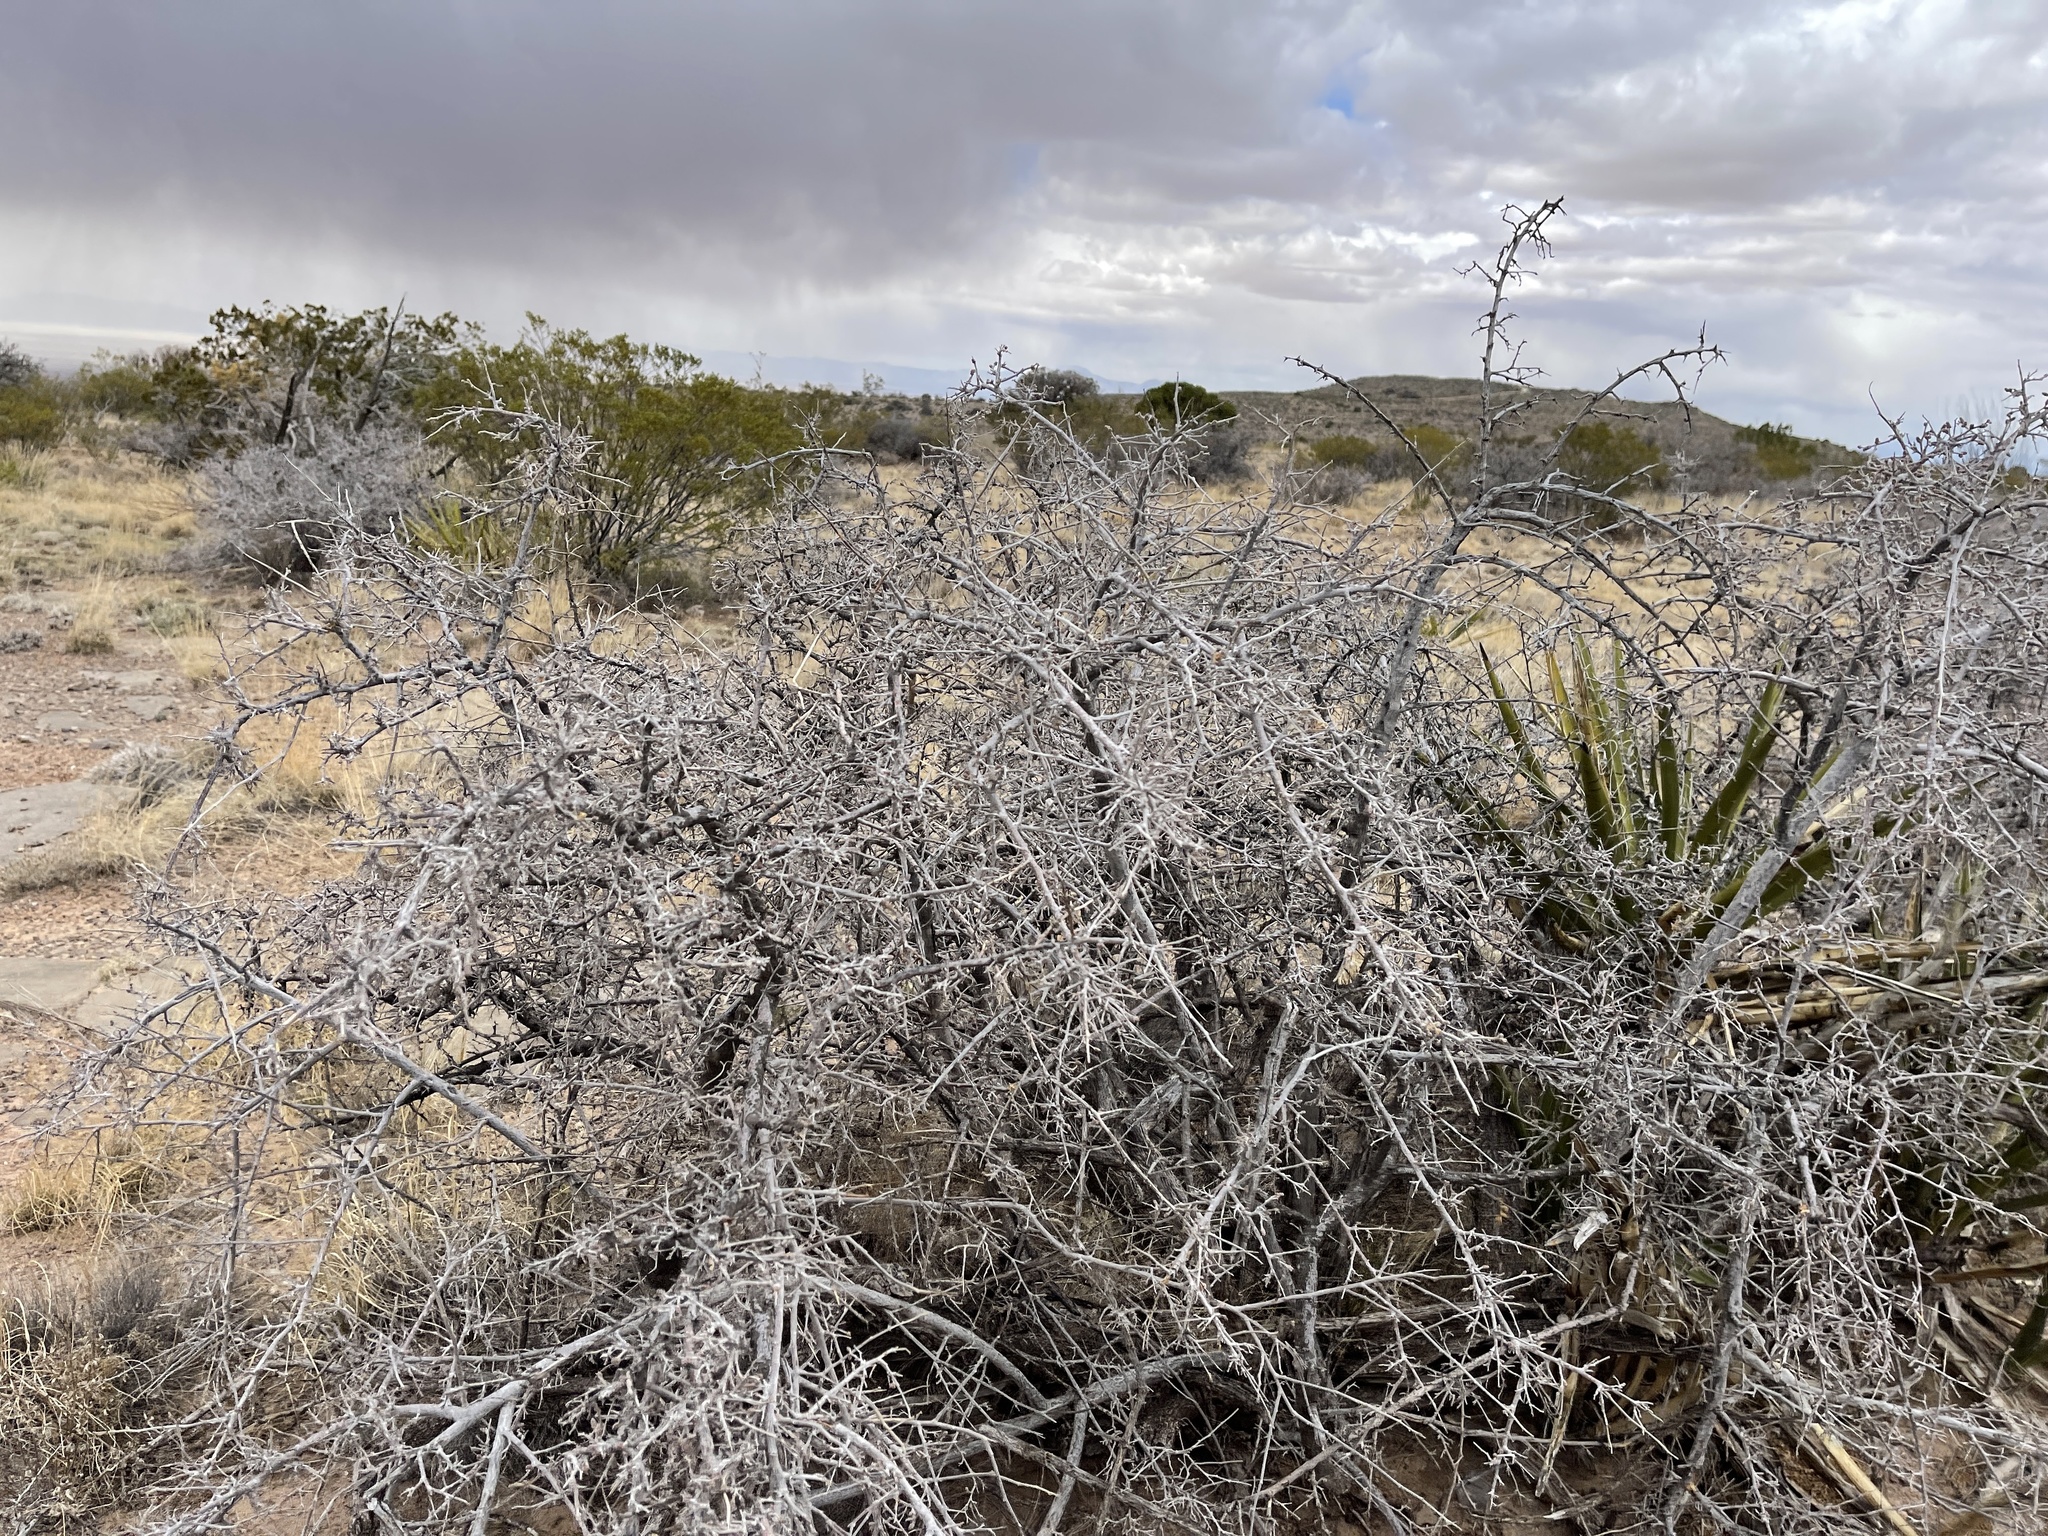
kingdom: Plantae
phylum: Tracheophyta
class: Magnoliopsida
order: Sapindales
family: Anacardiaceae
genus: Rhus
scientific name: Rhus microphylla
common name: Desert sumac
